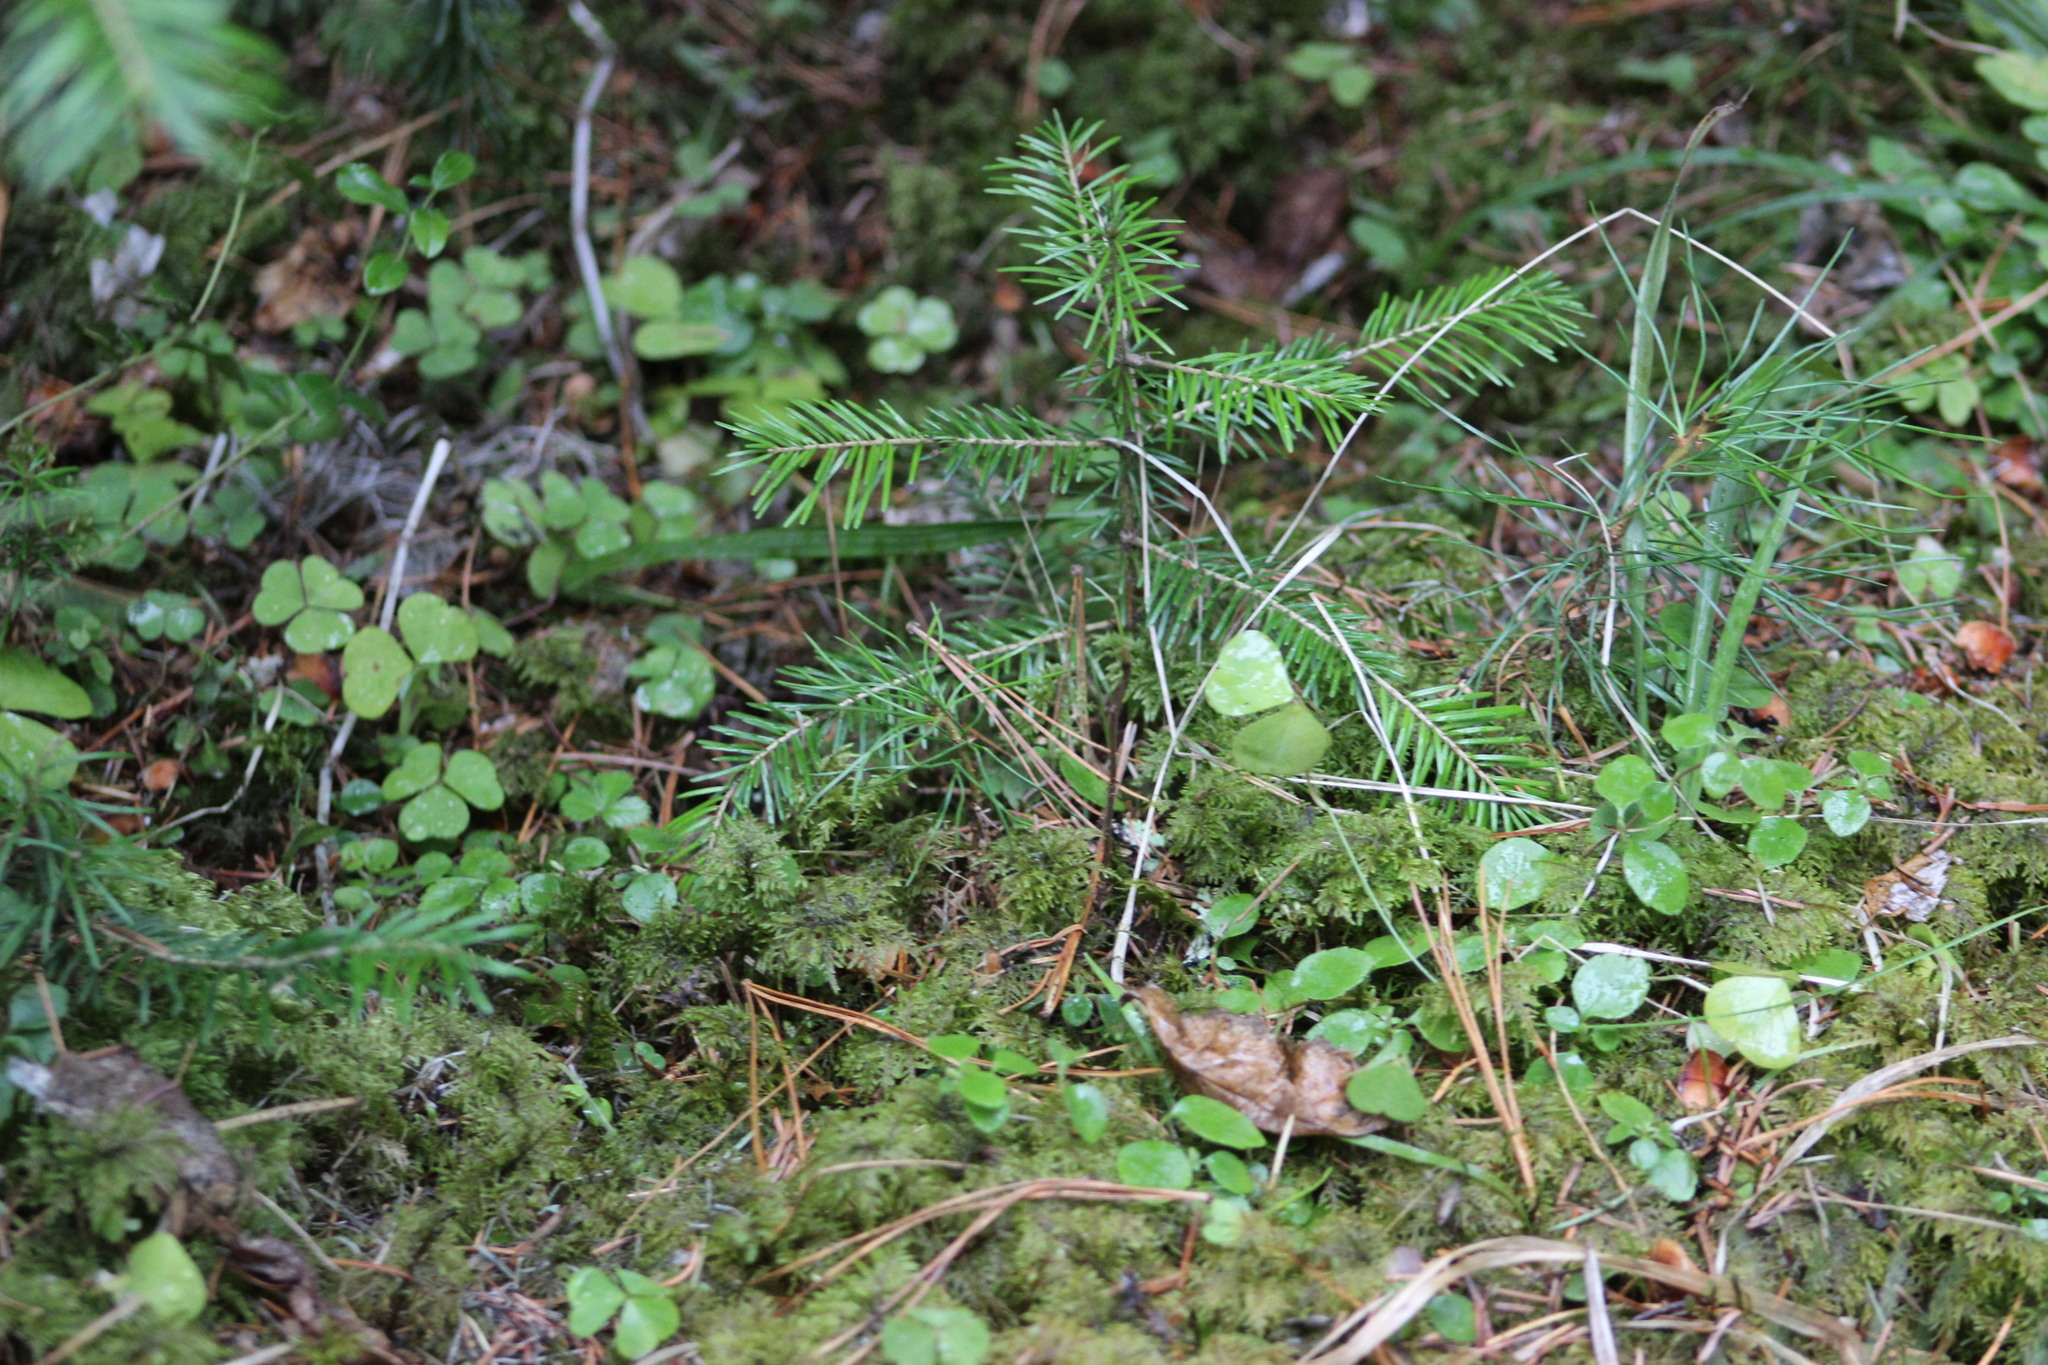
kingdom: Plantae
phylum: Tracheophyta
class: Pinopsida
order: Pinales
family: Pinaceae
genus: Abies
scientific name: Abies sibirica
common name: Siberian fir
